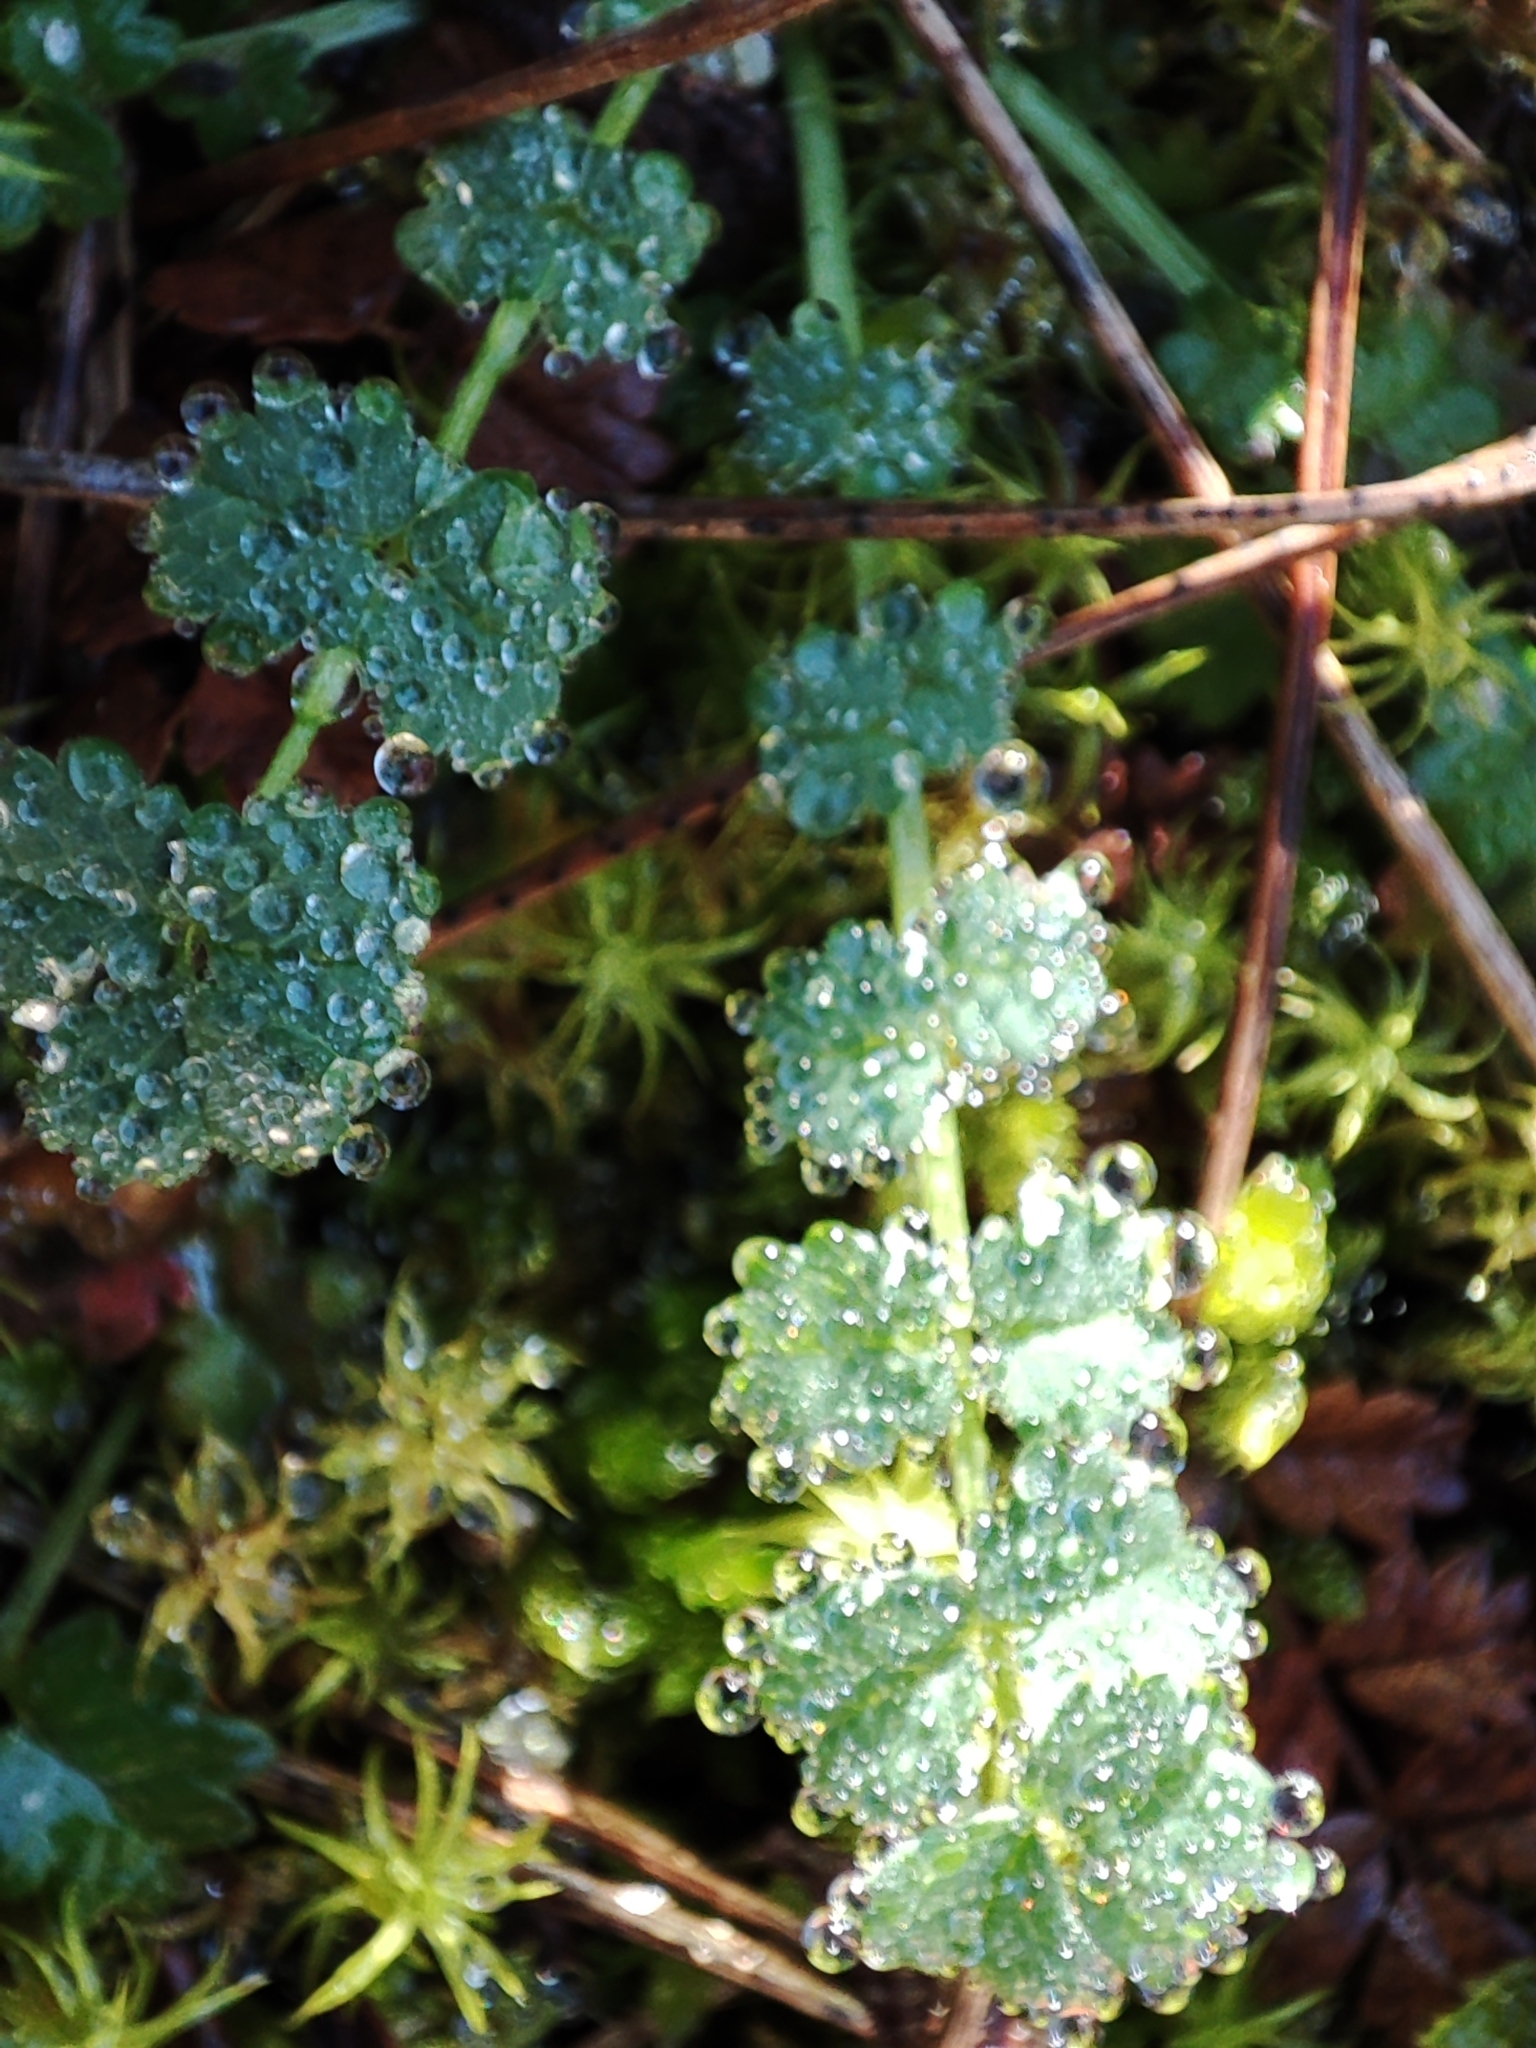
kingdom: Plantae
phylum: Tracheophyta
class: Magnoliopsida
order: Rosales
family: Rosaceae
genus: Poterium
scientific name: Poterium sanguisorba
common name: Salad burnet
